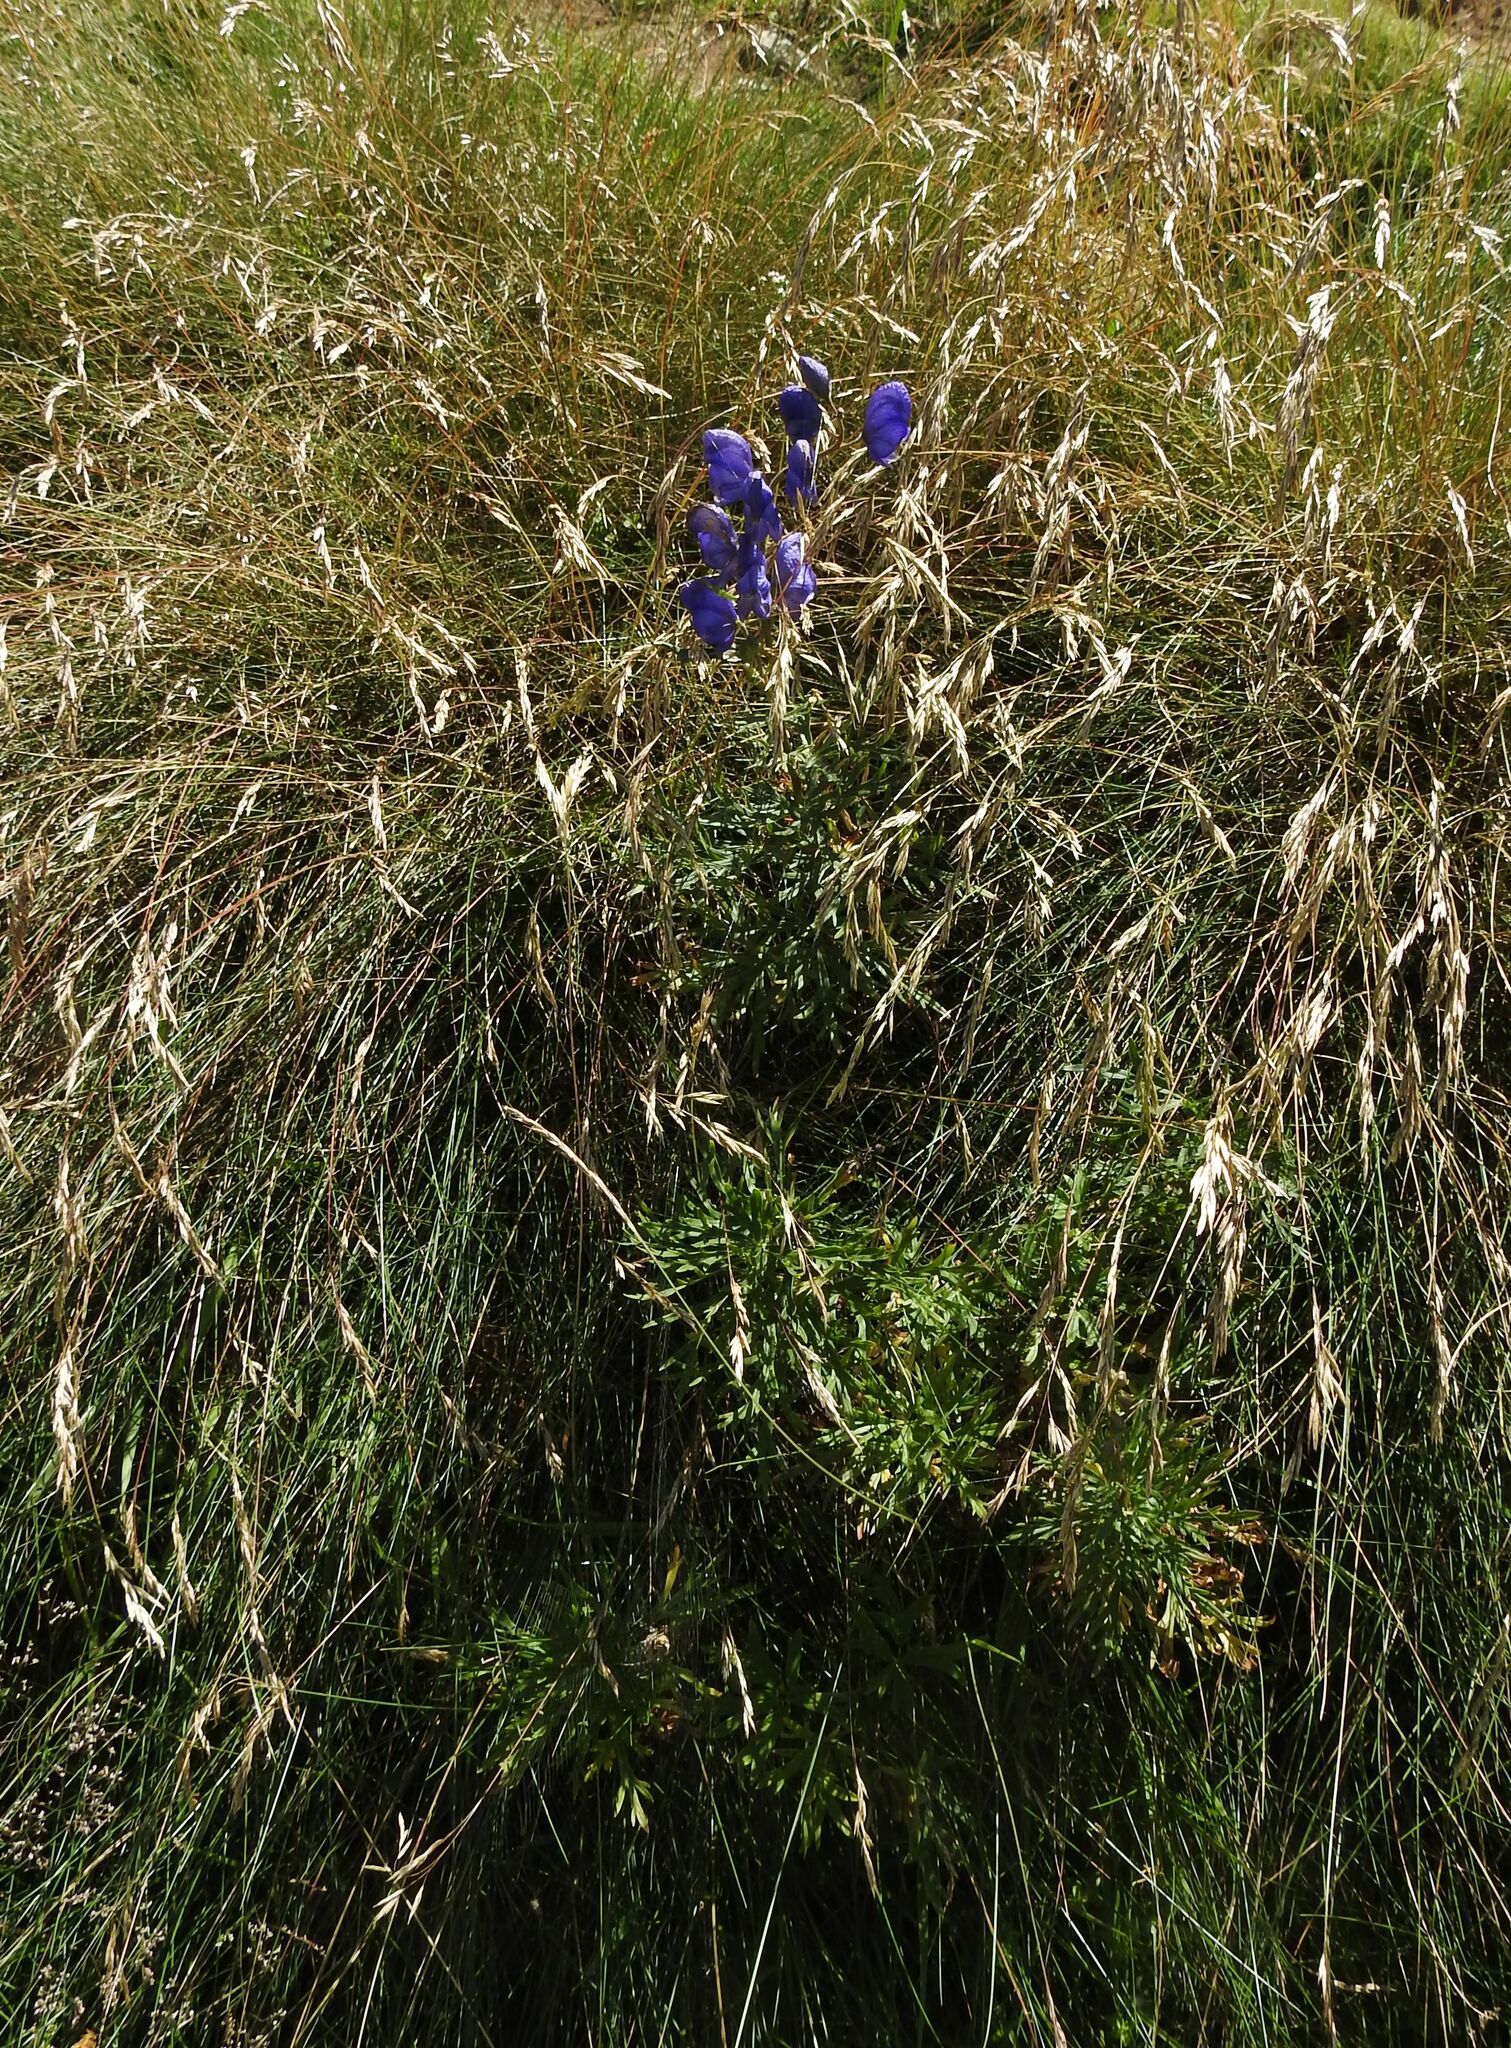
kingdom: Plantae
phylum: Tracheophyta
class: Magnoliopsida
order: Ranunculales
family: Ranunculaceae
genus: Aconitum
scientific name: Aconitum napellus
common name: Garden monkshood
